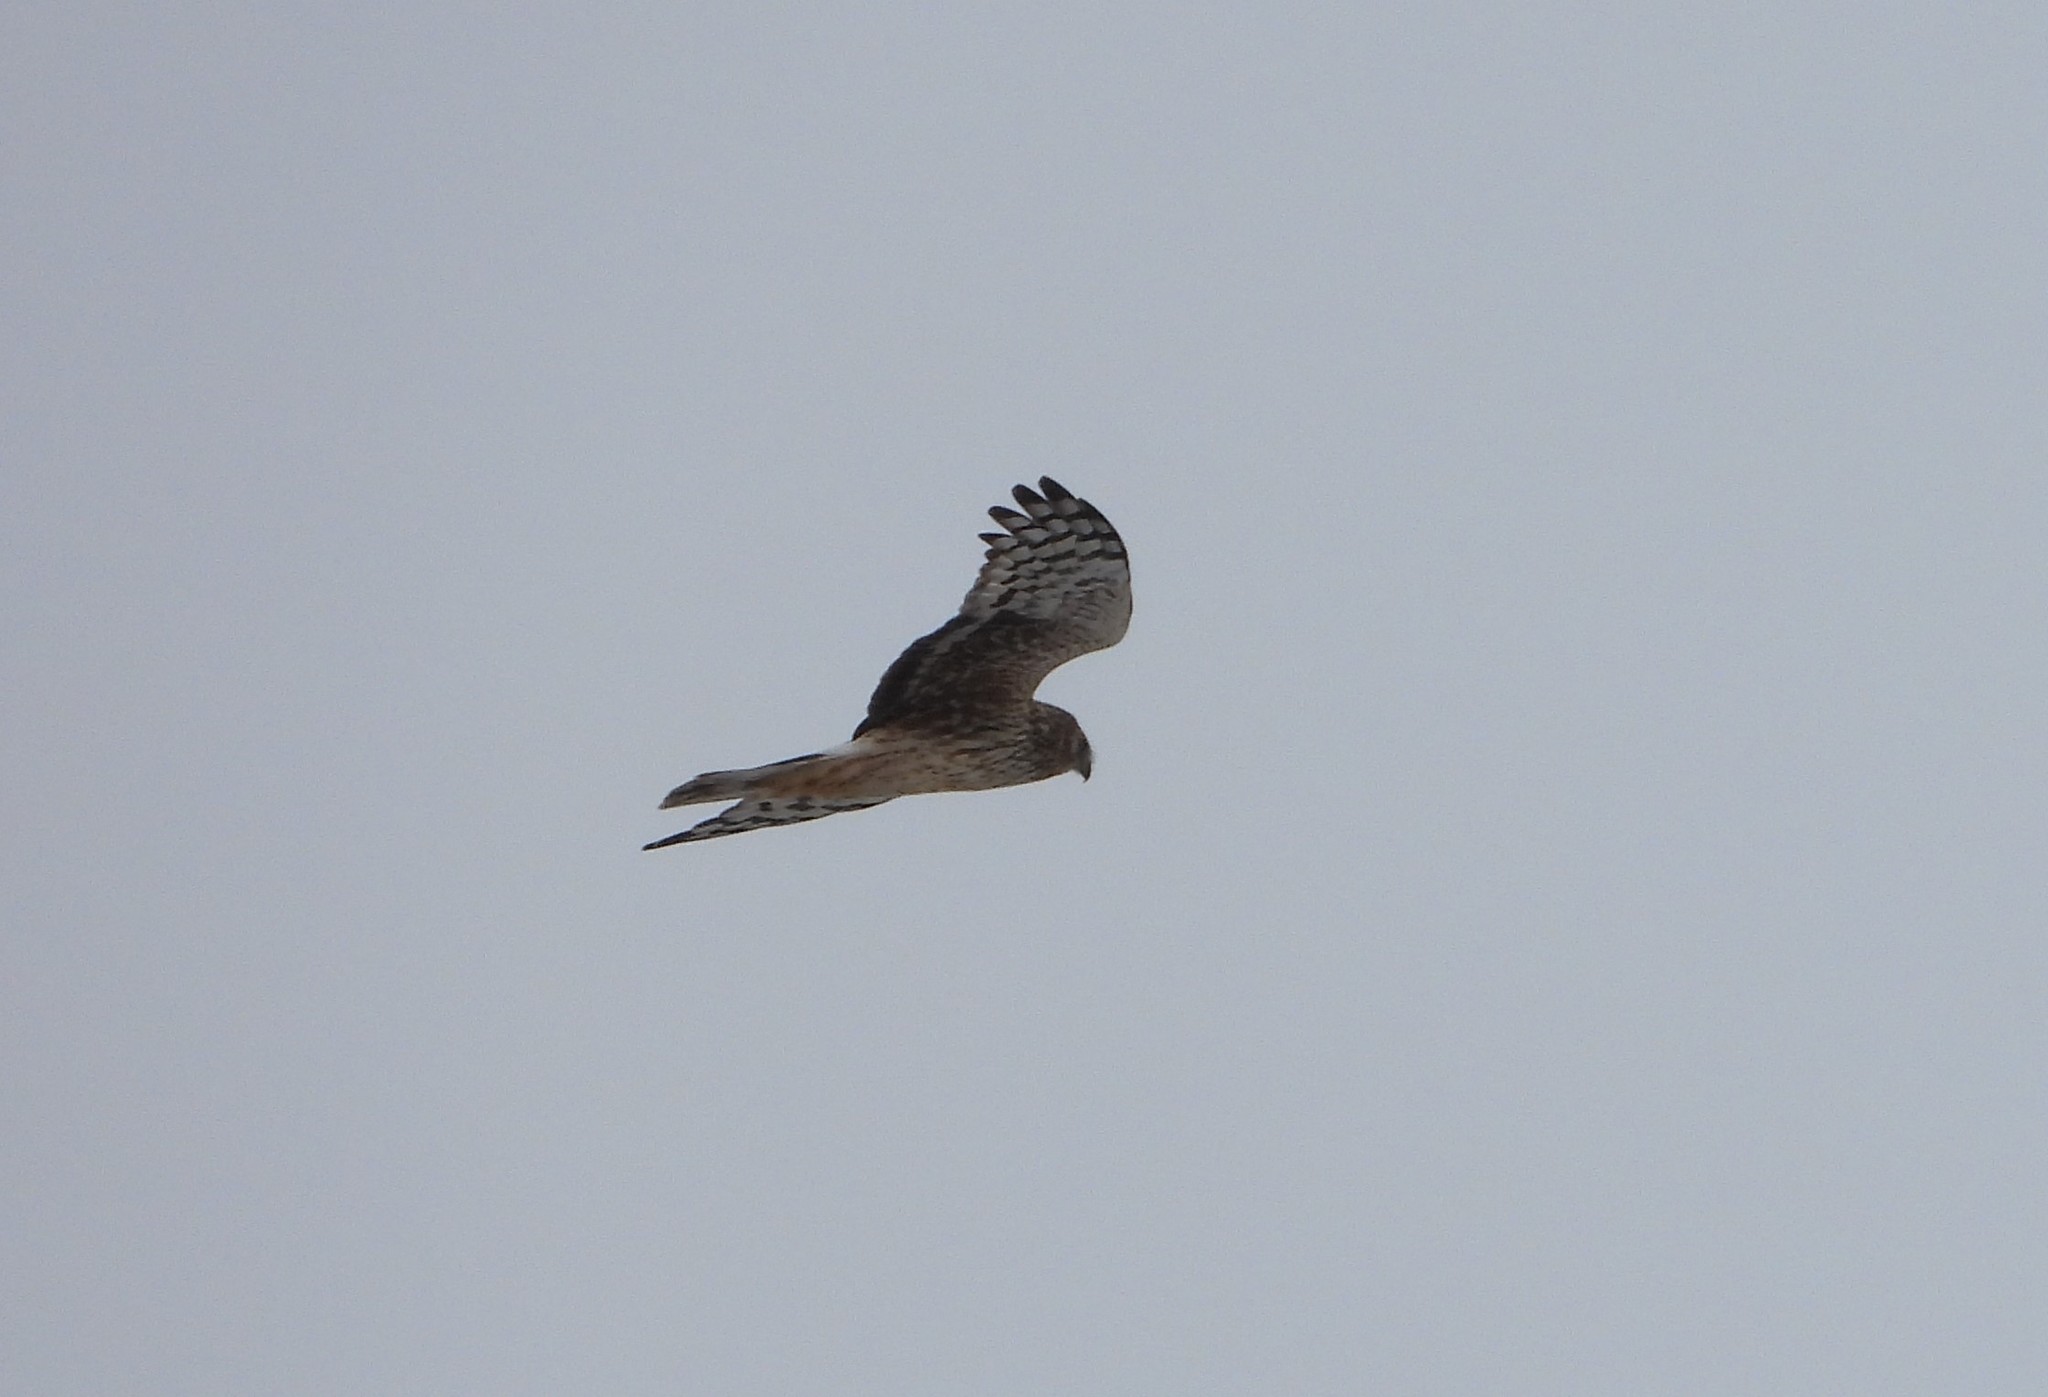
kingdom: Animalia
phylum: Chordata
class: Aves
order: Accipitriformes
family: Accipitridae
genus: Circus
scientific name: Circus cyaneus
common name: Hen harrier
